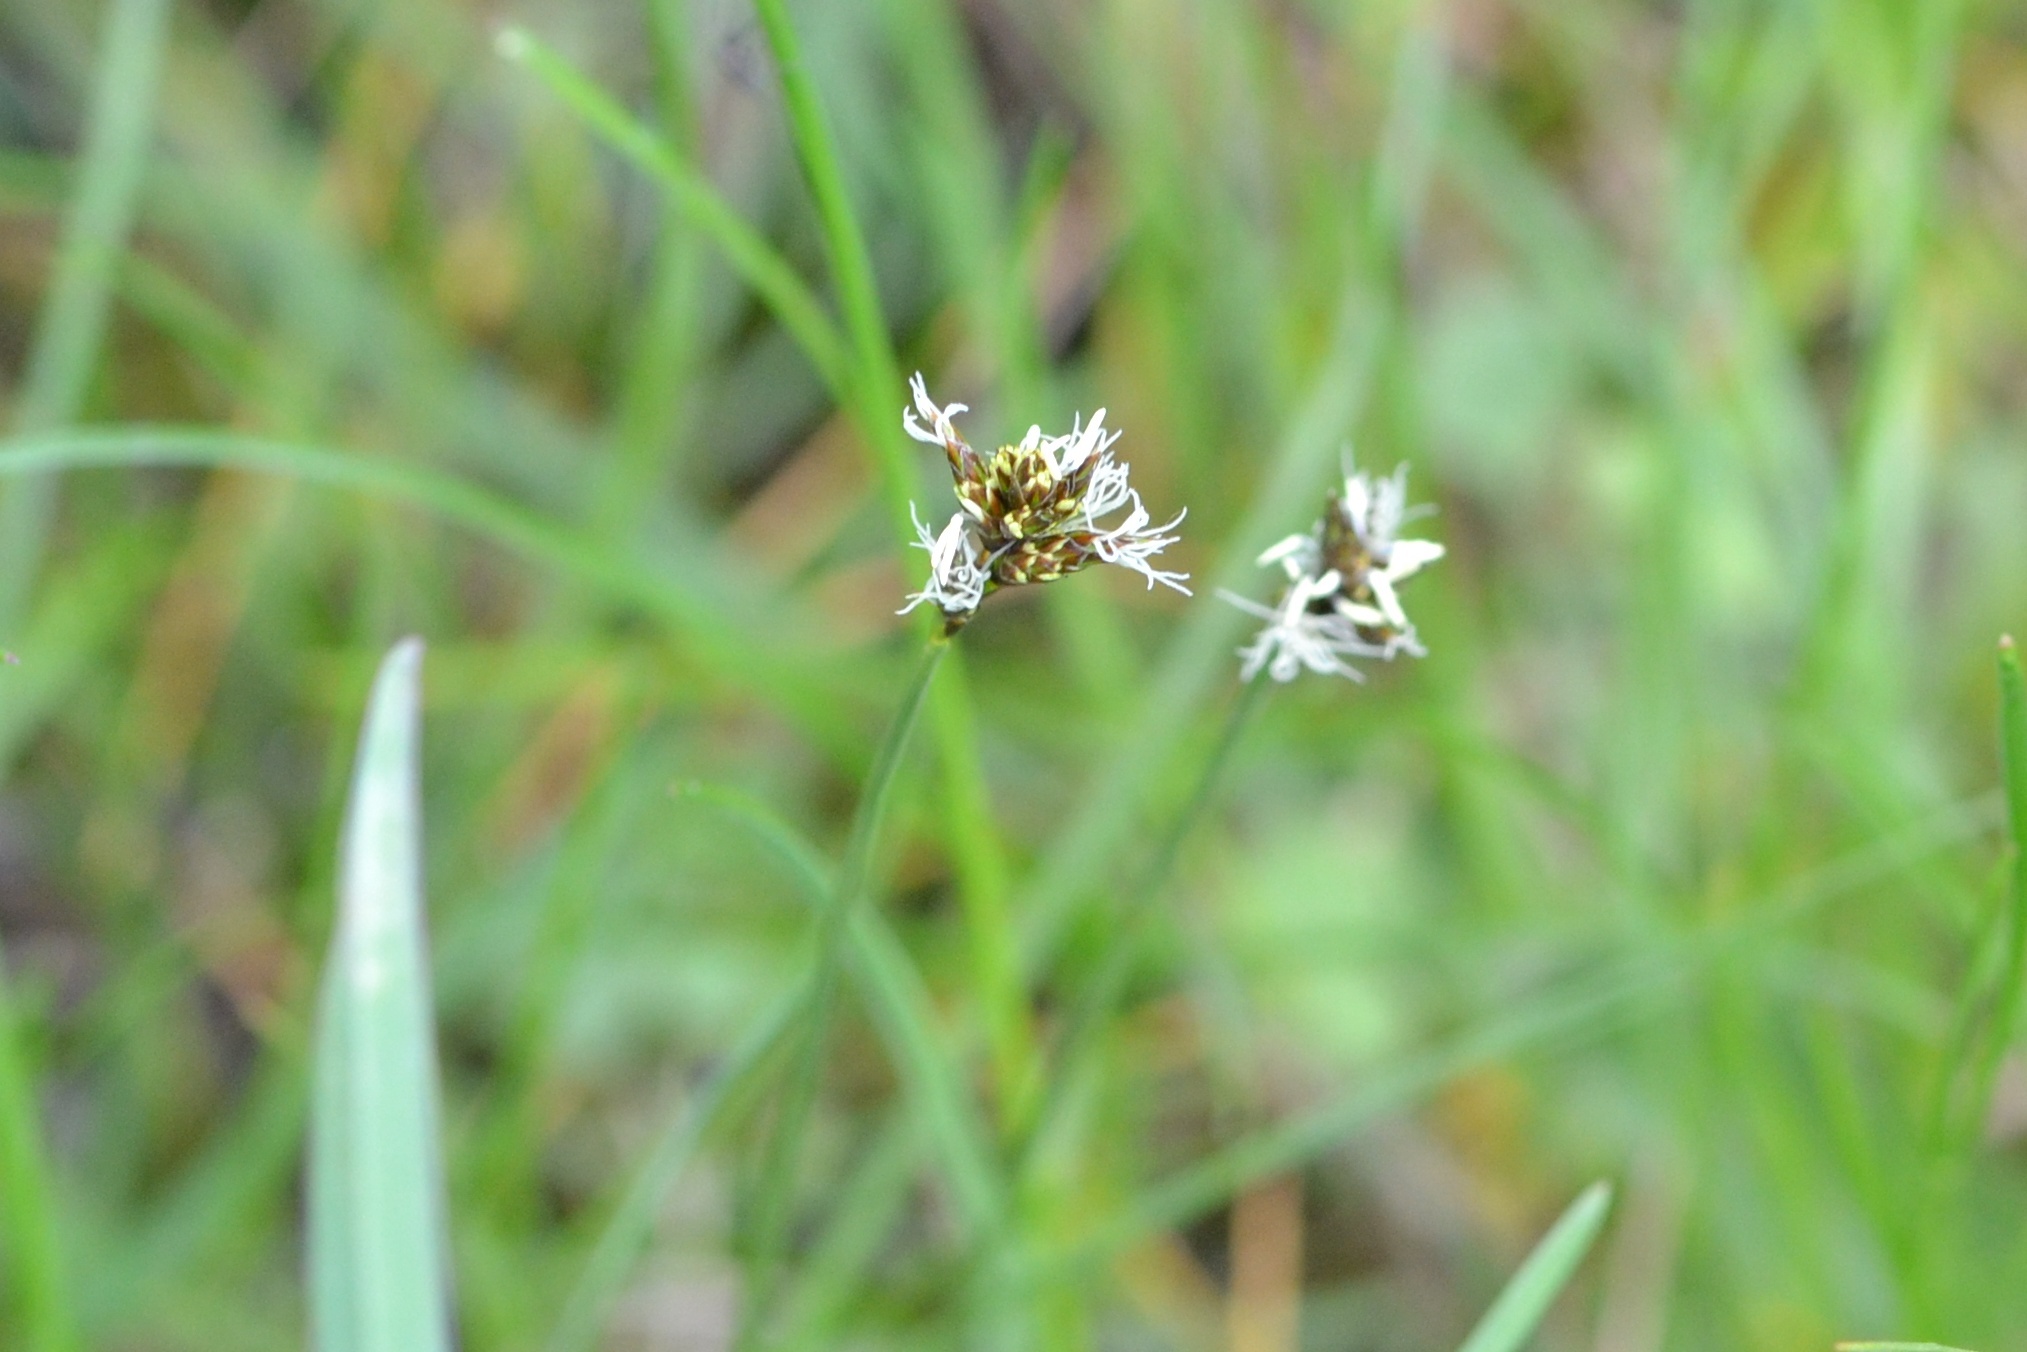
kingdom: Plantae
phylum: Tracheophyta
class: Liliopsida
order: Poales
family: Cyperaceae
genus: Carex
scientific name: Carex praecox
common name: Early sedge
